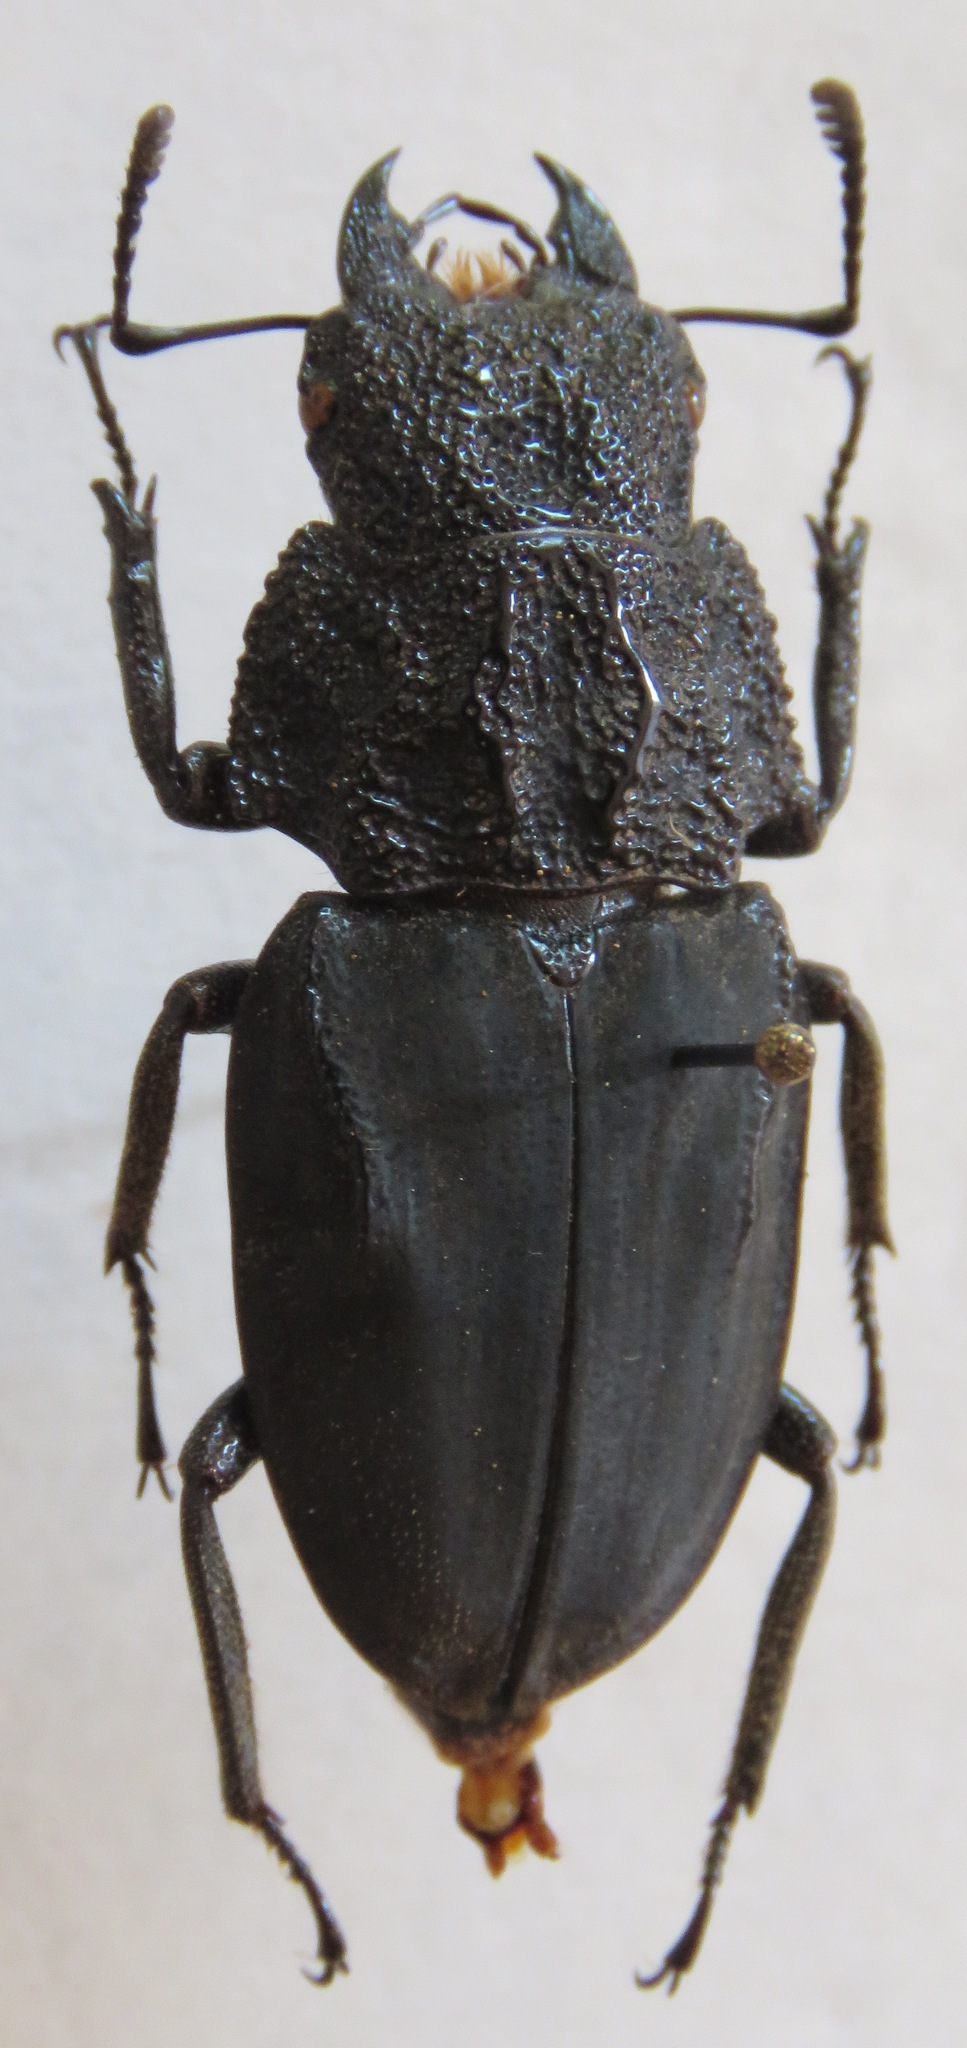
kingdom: Animalia
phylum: Arthropoda
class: Insecta
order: Coleoptera
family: Lucanidae
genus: Cantharolethrus
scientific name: Cantharolethrus luxerii
